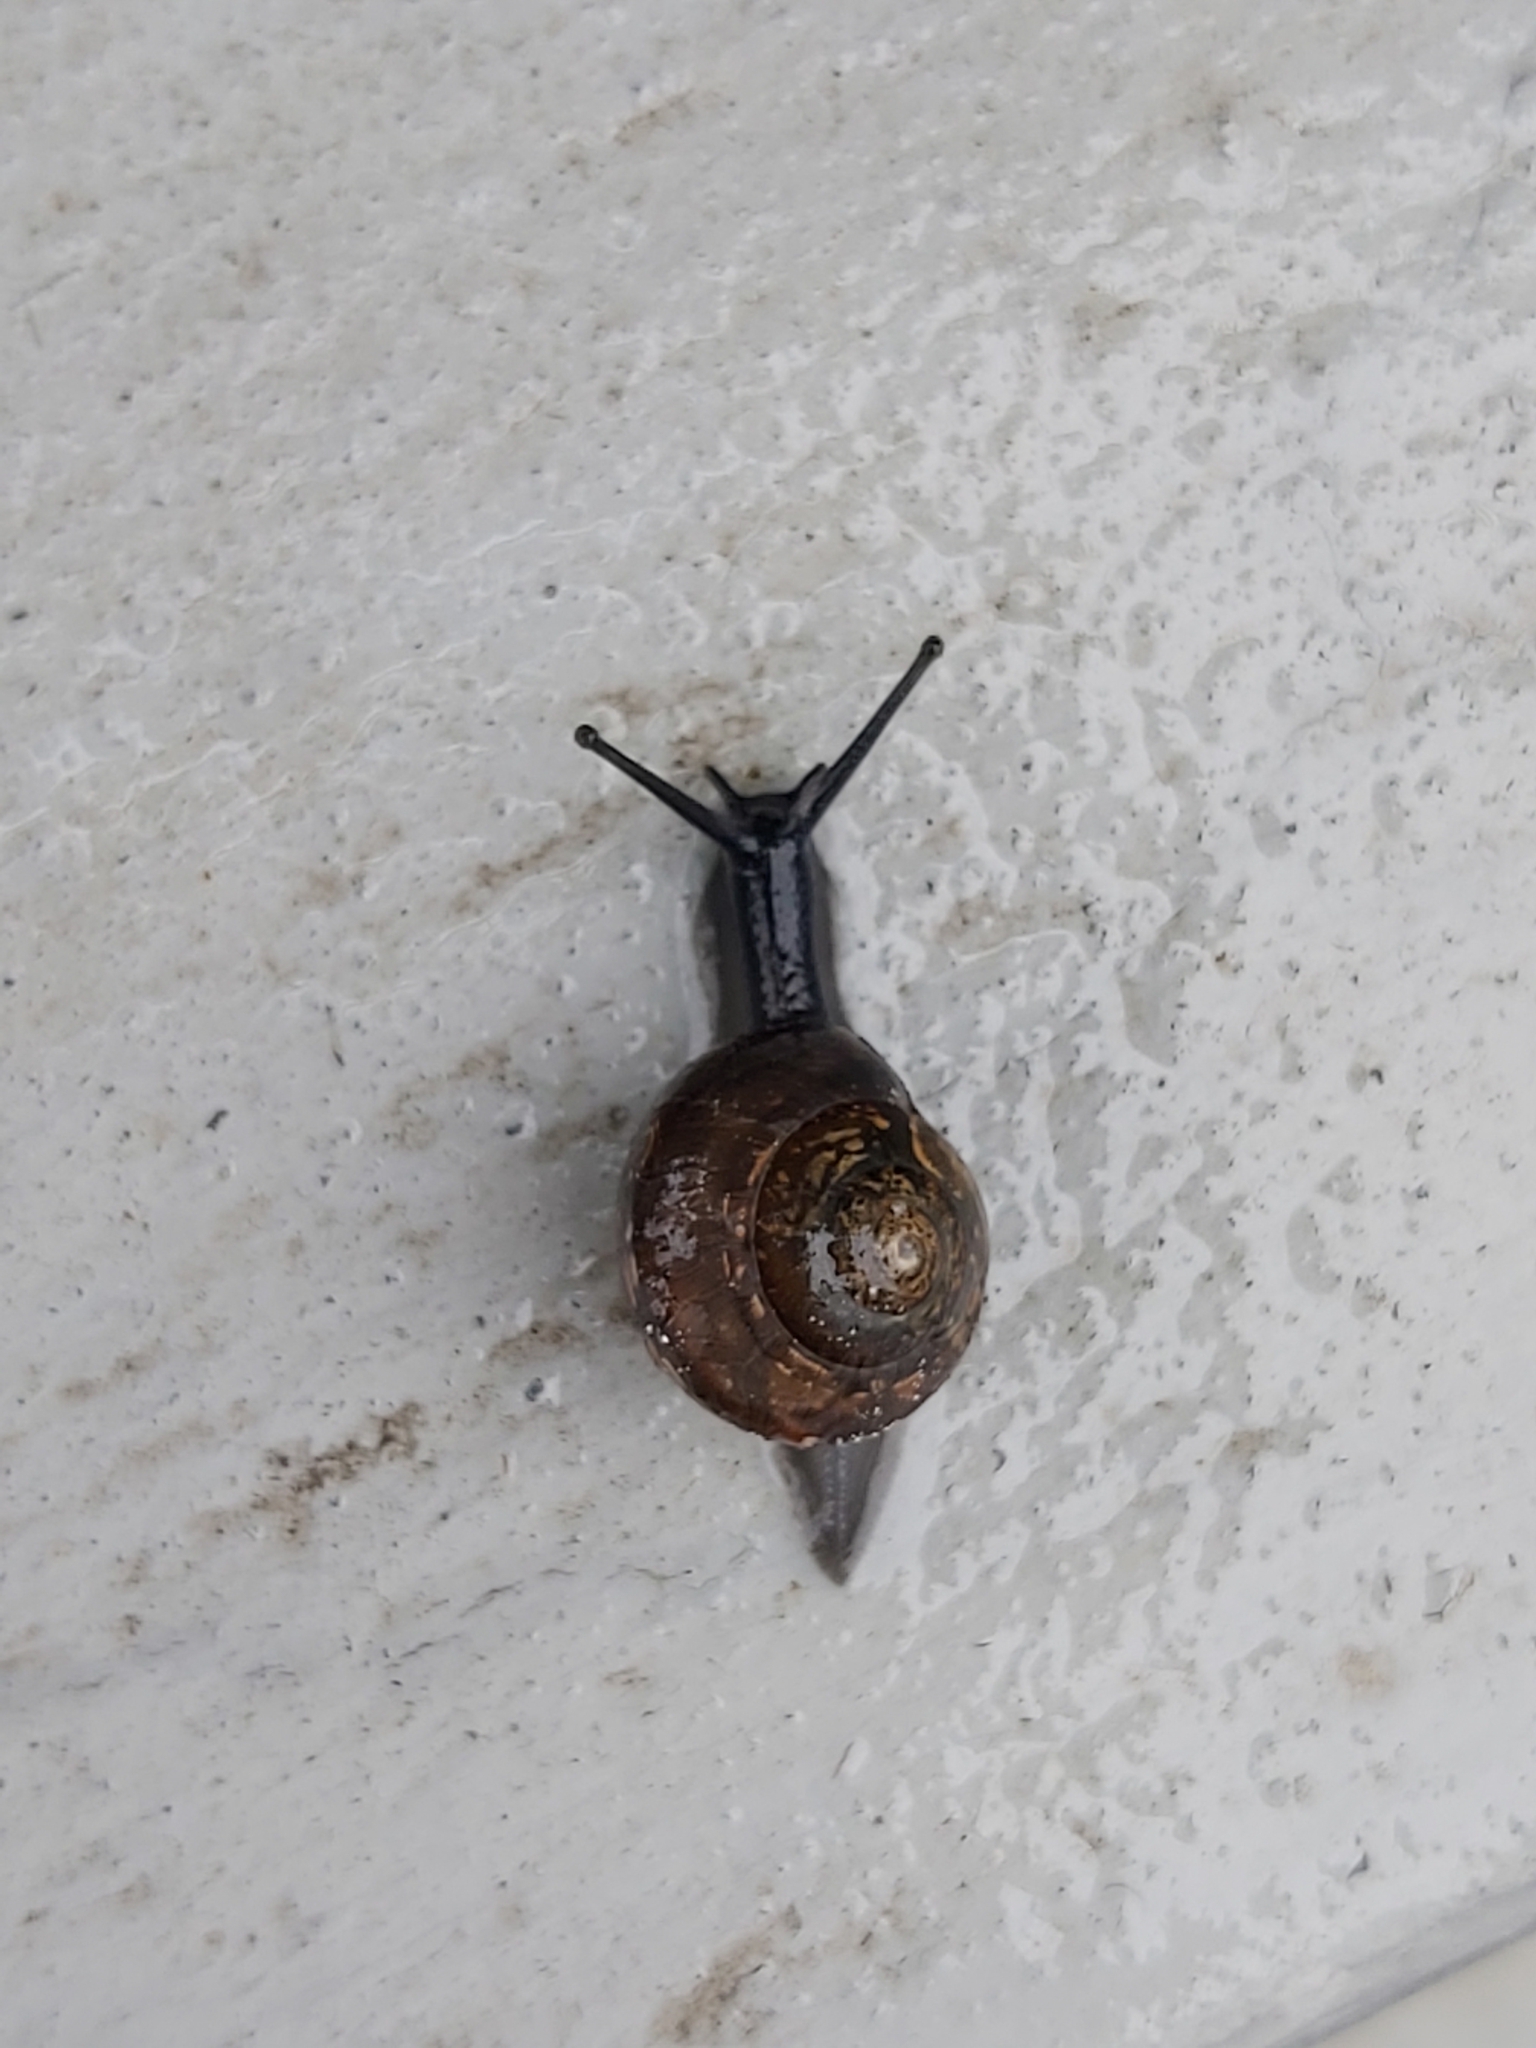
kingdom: Animalia
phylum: Mollusca
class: Gastropoda
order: Stylommatophora
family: Helicidae
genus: Arianta
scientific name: Arianta arbustorum
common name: Copse snail
